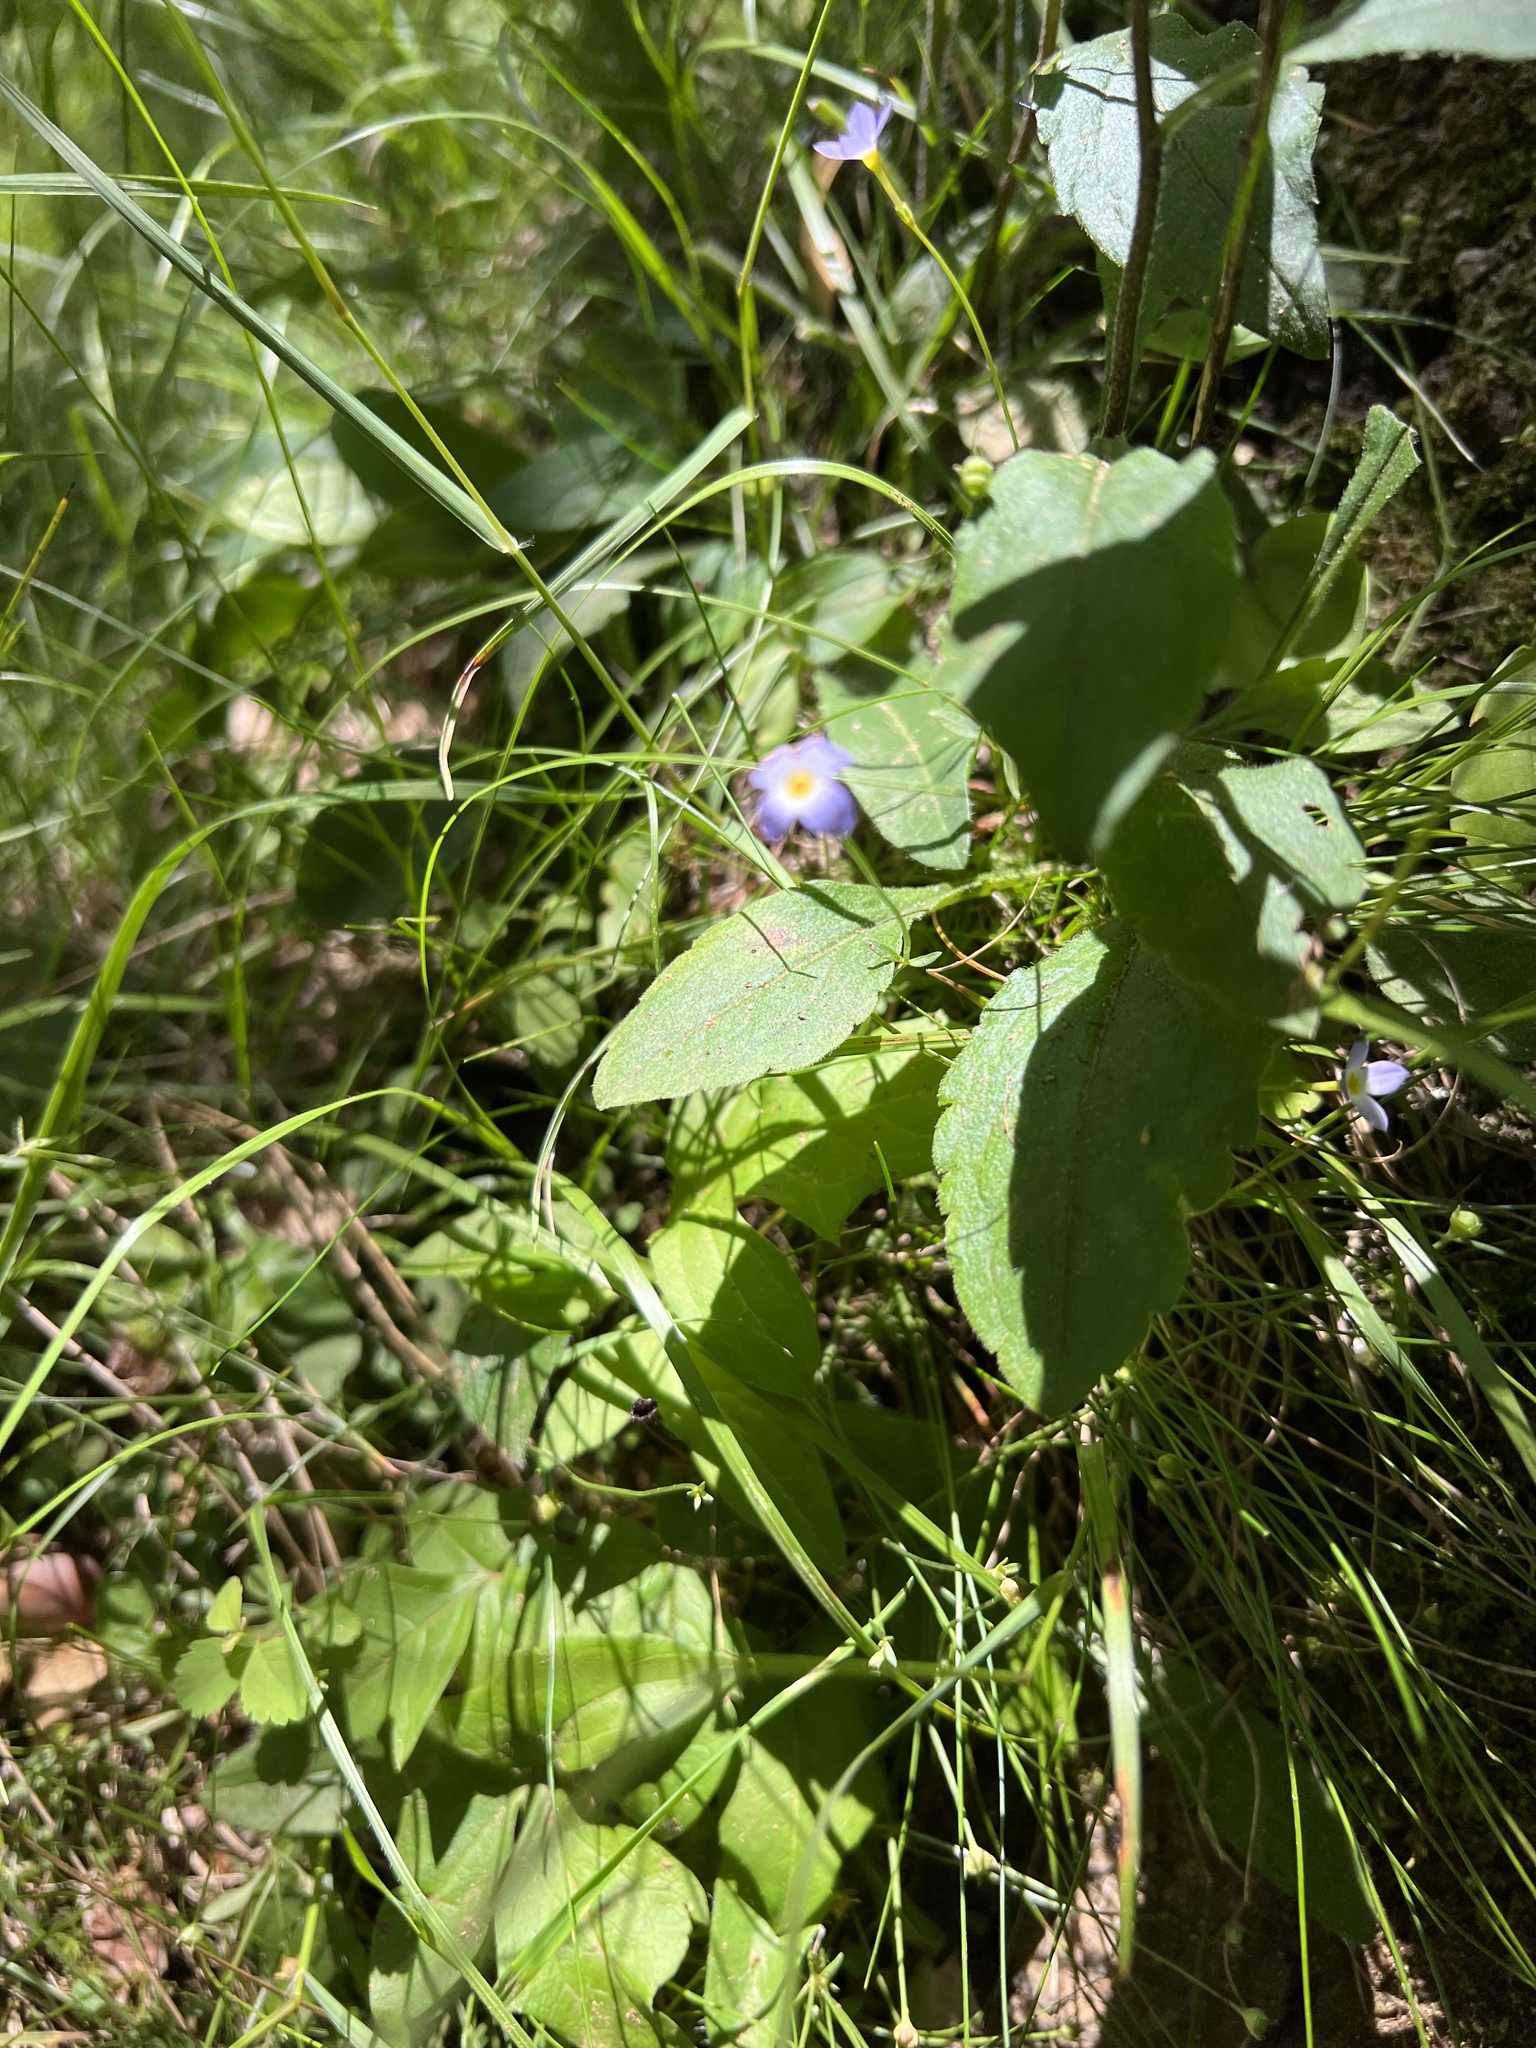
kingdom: Plantae
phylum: Tracheophyta
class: Magnoliopsida
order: Gentianales
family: Rubiaceae
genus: Houstonia
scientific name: Houstonia caerulea
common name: Bluets
